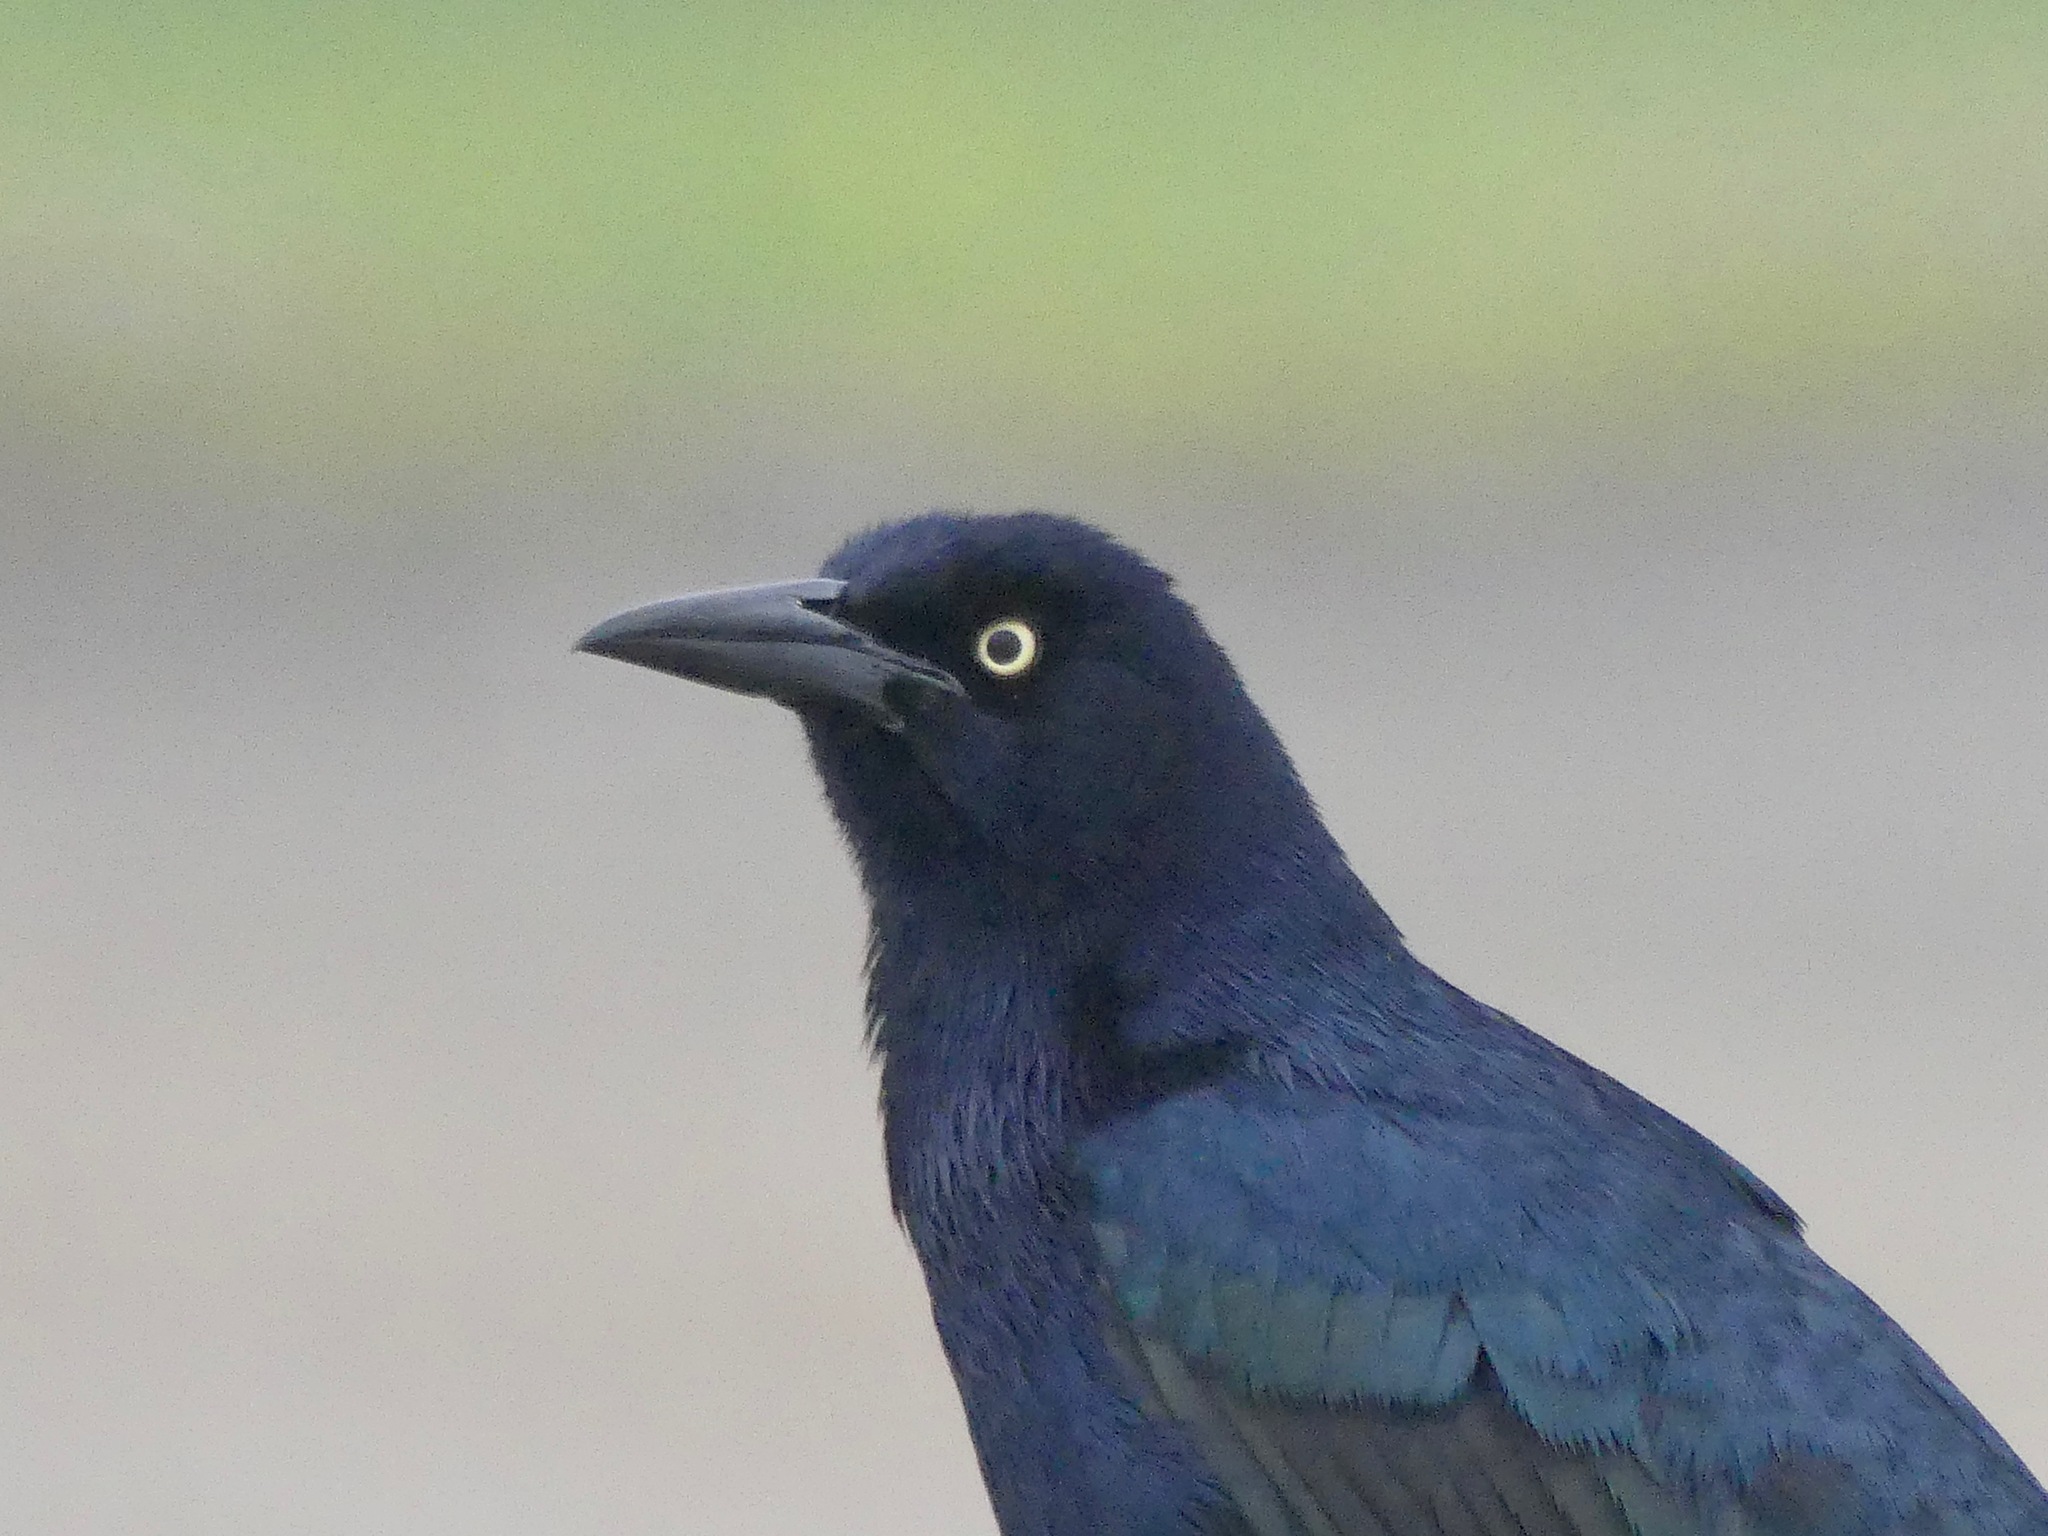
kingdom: Animalia
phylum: Chordata
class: Aves
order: Passeriformes
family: Icteridae
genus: Quiscalus
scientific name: Quiscalus mexicanus
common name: Great-tailed grackle
